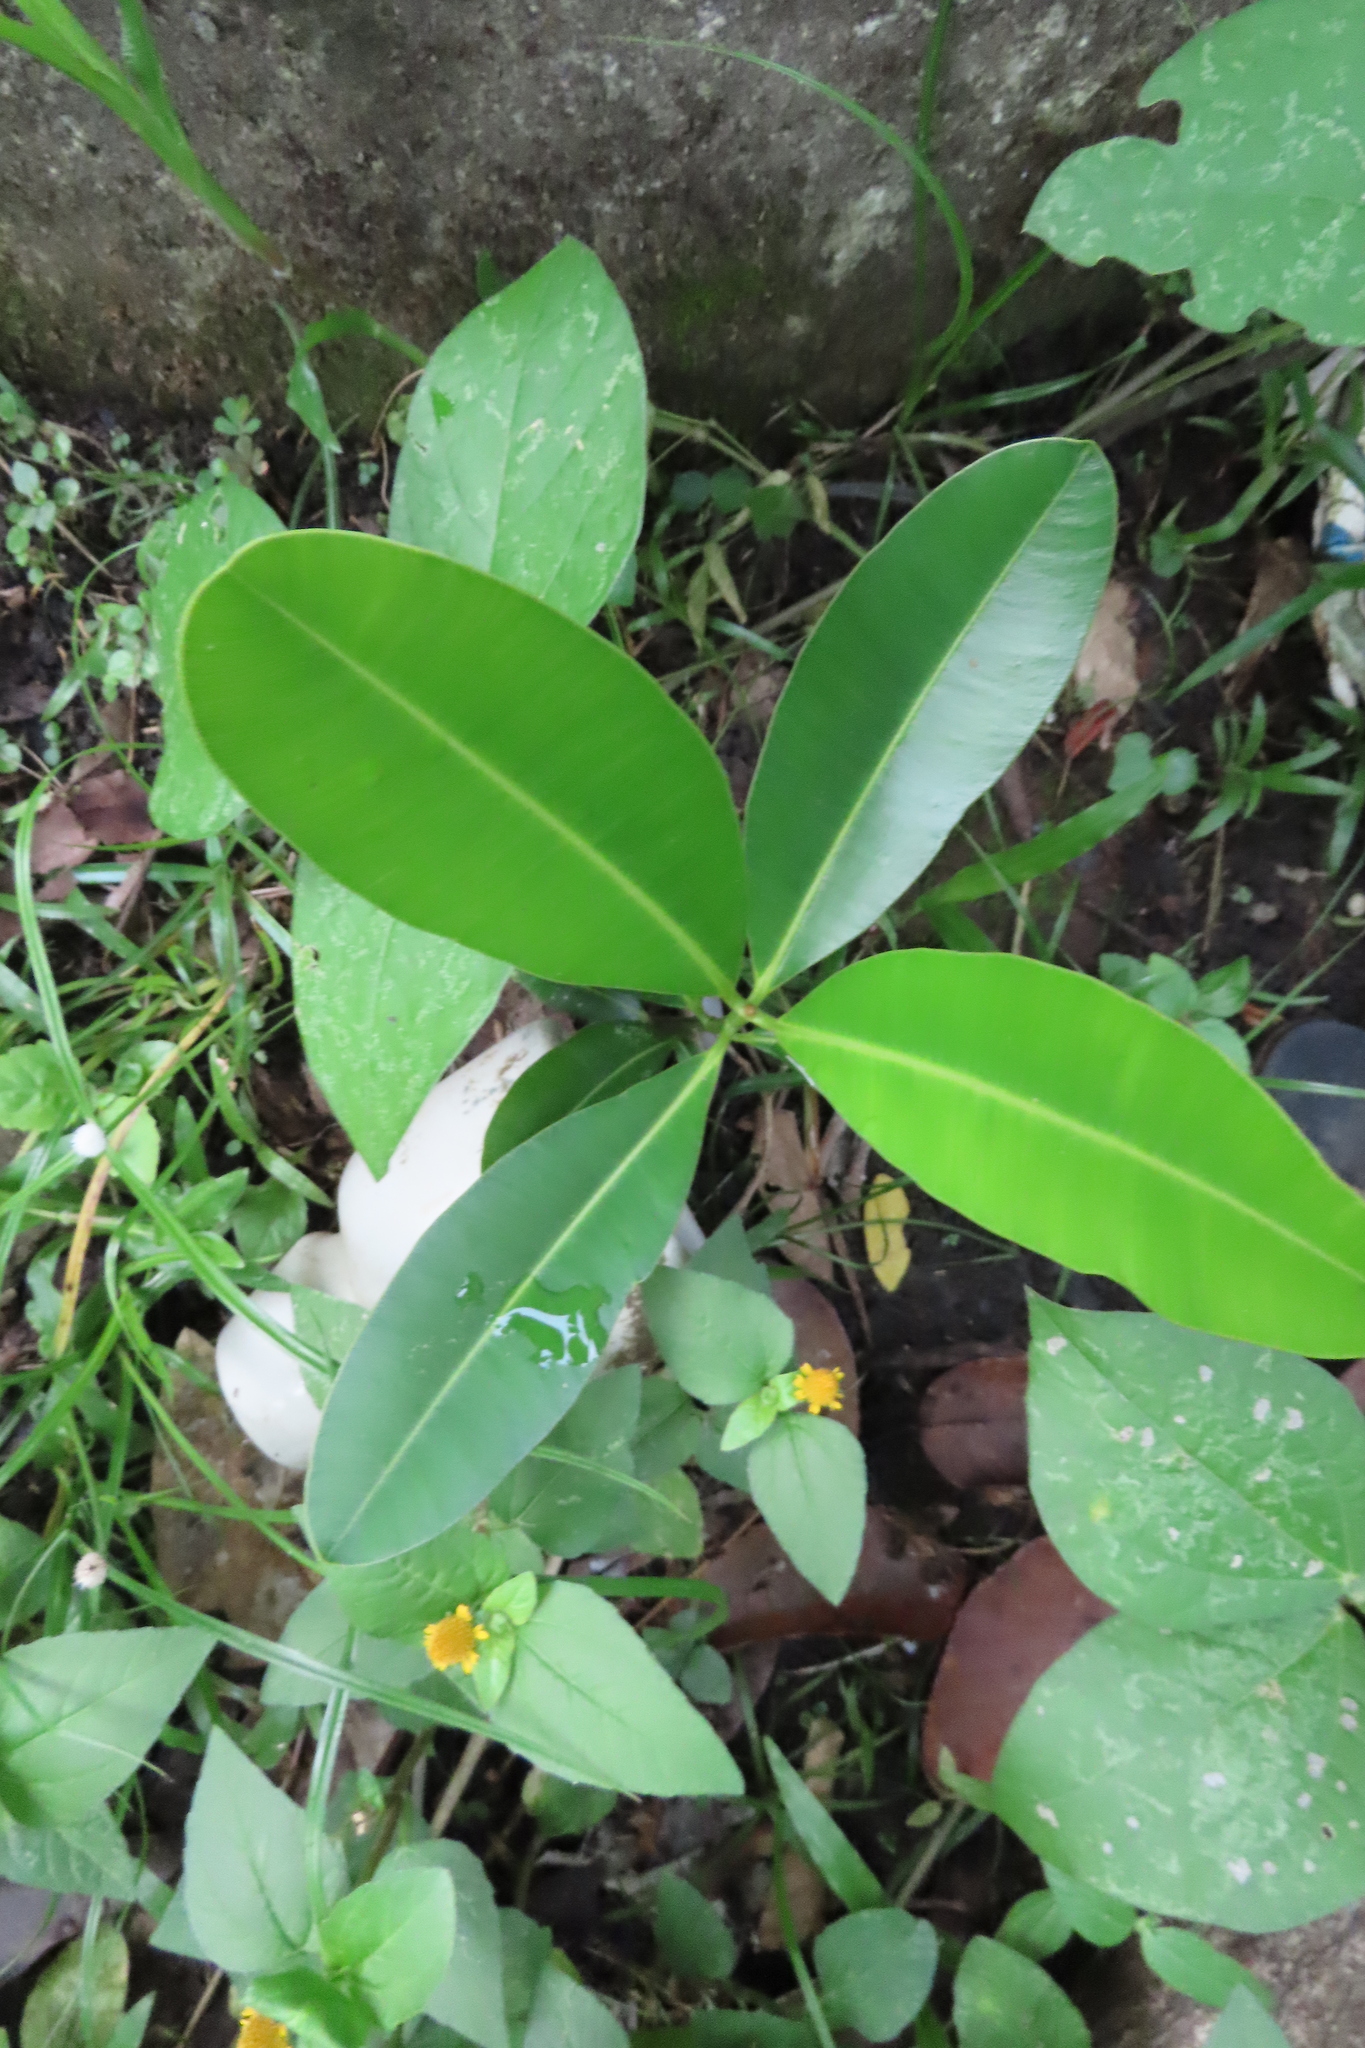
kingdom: Plantae
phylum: Tracheophyta
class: Magnoliopsida
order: Malpighiales
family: Calophyllaceae
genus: Calophyllum
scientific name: Calophyllum inophyllum
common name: Alexandrian laurel
